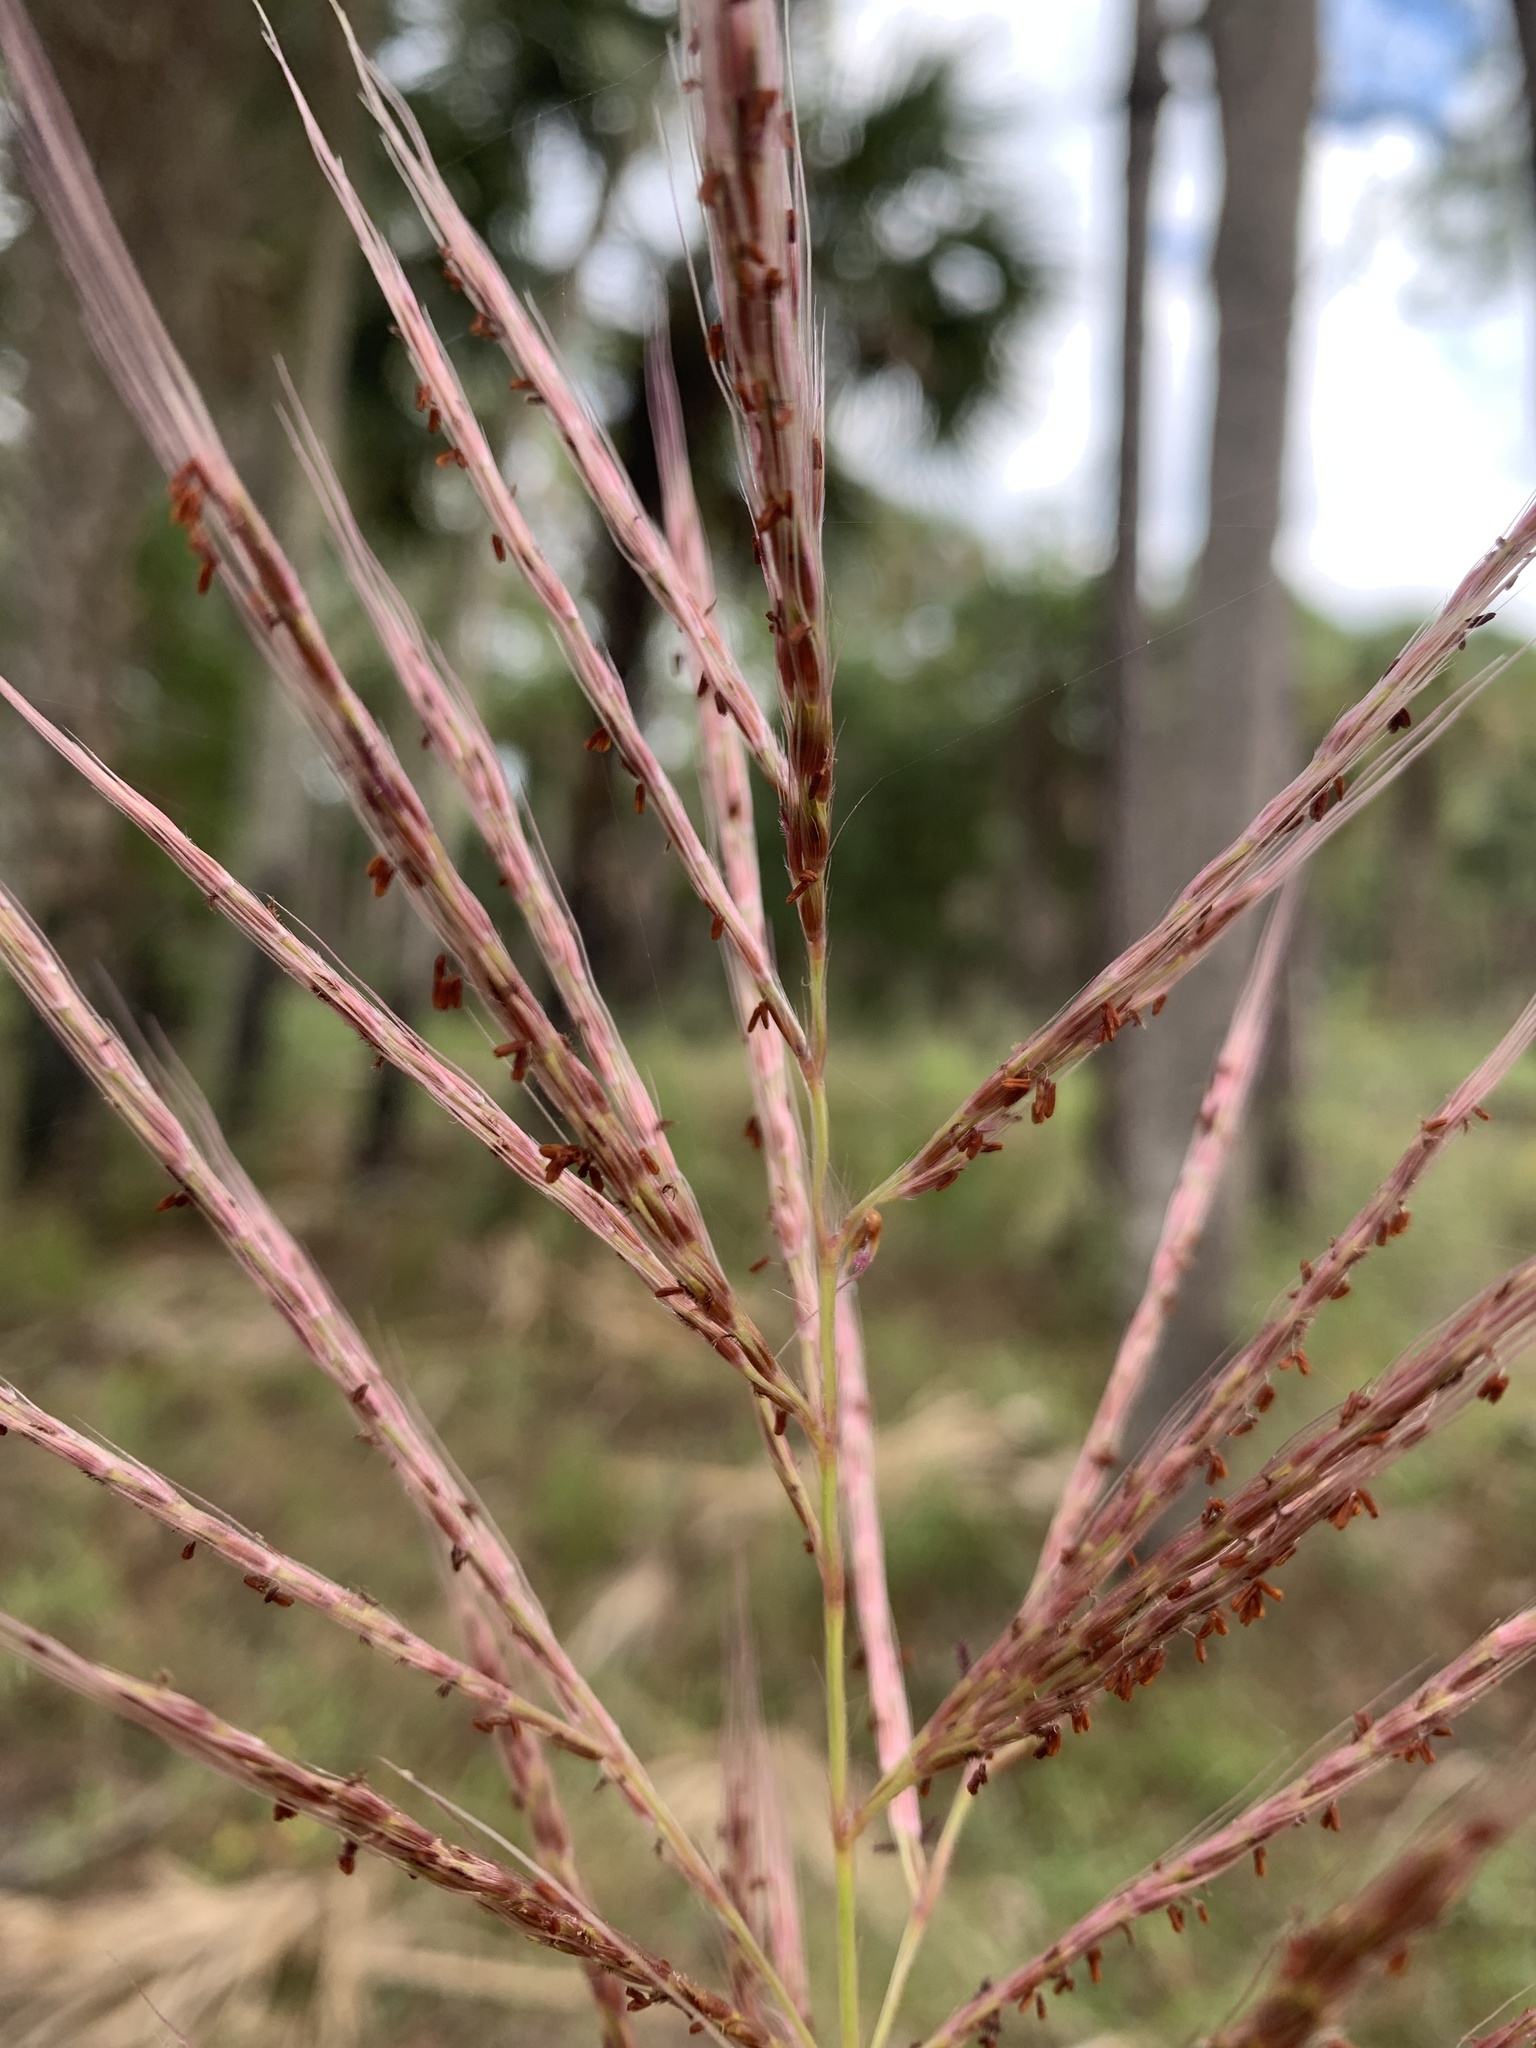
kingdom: Plantae
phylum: Tracheophyta
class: Liliopsida
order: Poales
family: Poaceae
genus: Erianthus
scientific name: Erianthus giganteus
